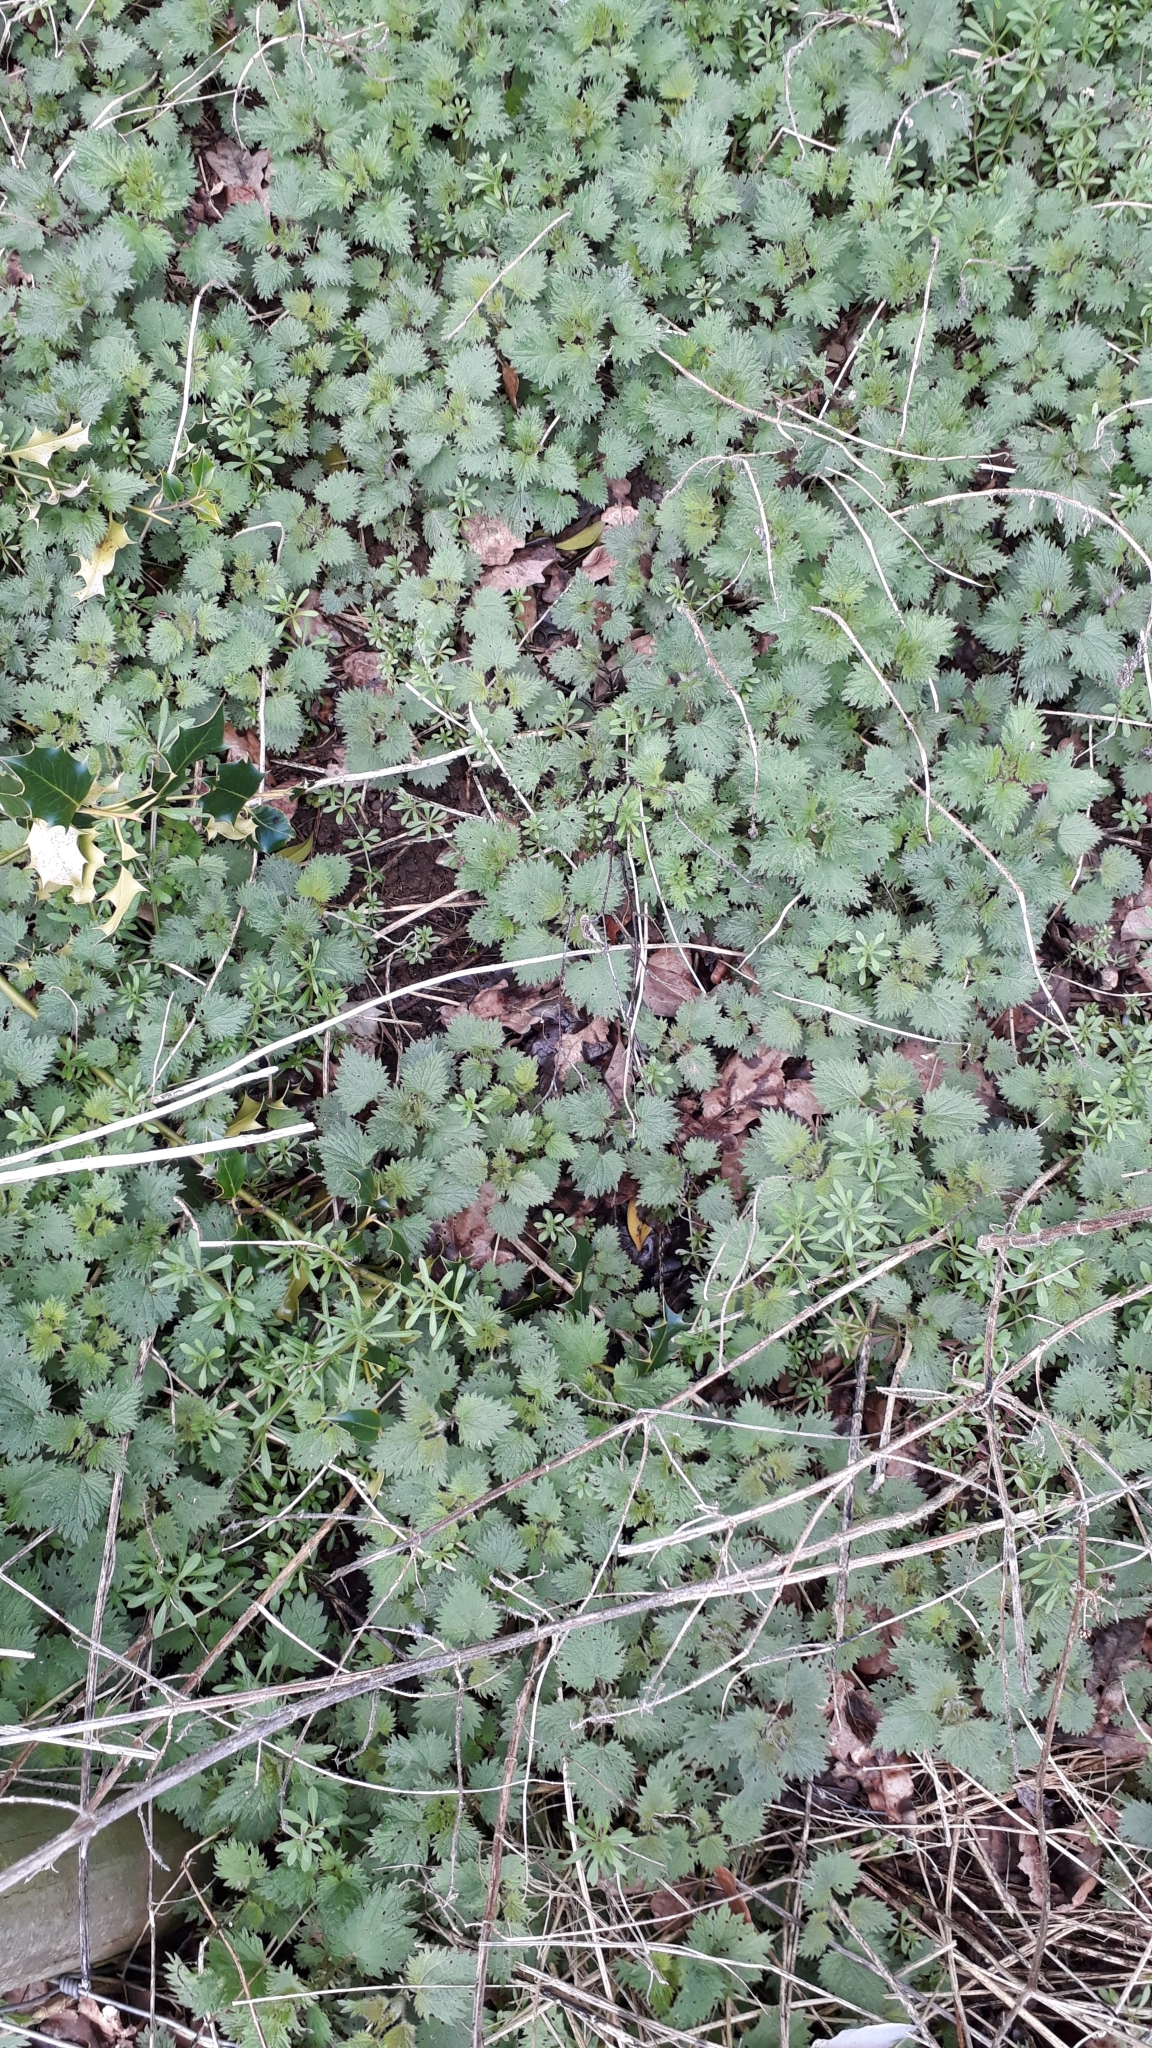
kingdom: Plantae
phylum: Tracheophyta
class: Magnoliopsida
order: Rosales
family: Urticaceae
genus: Urtica
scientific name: Urtica dioica
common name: Common nettle
